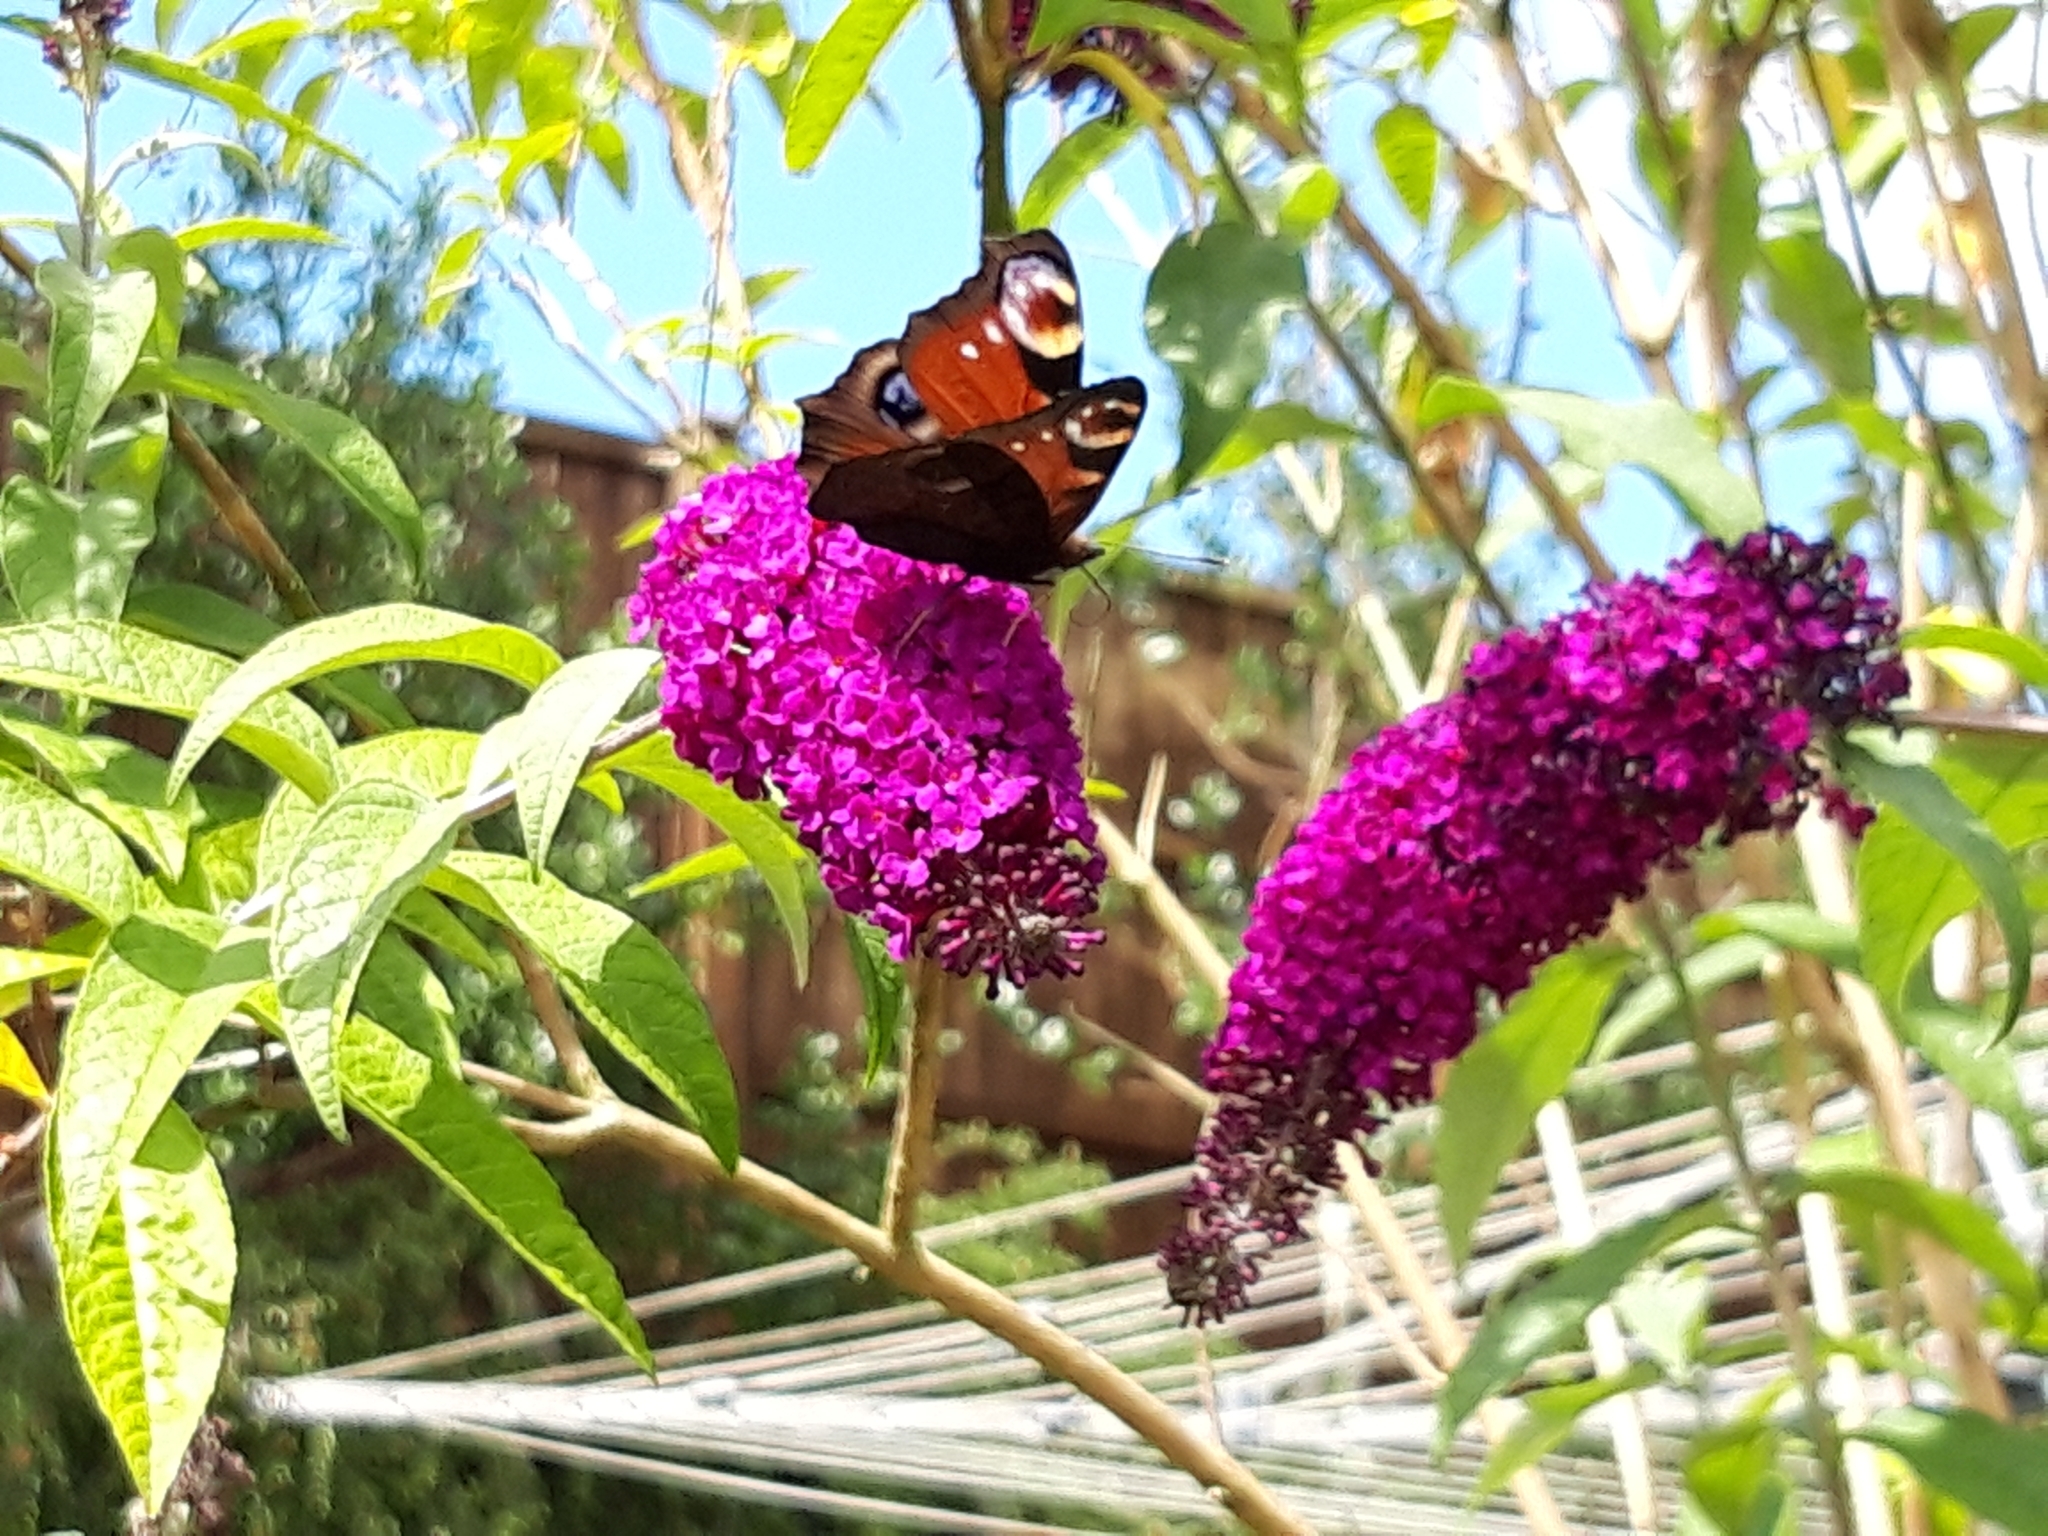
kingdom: Animalia
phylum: Arthropoda
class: Insecta
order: Lepidoptera
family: Nymphalidae
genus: Aglais
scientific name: Aglais io
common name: Peacock
